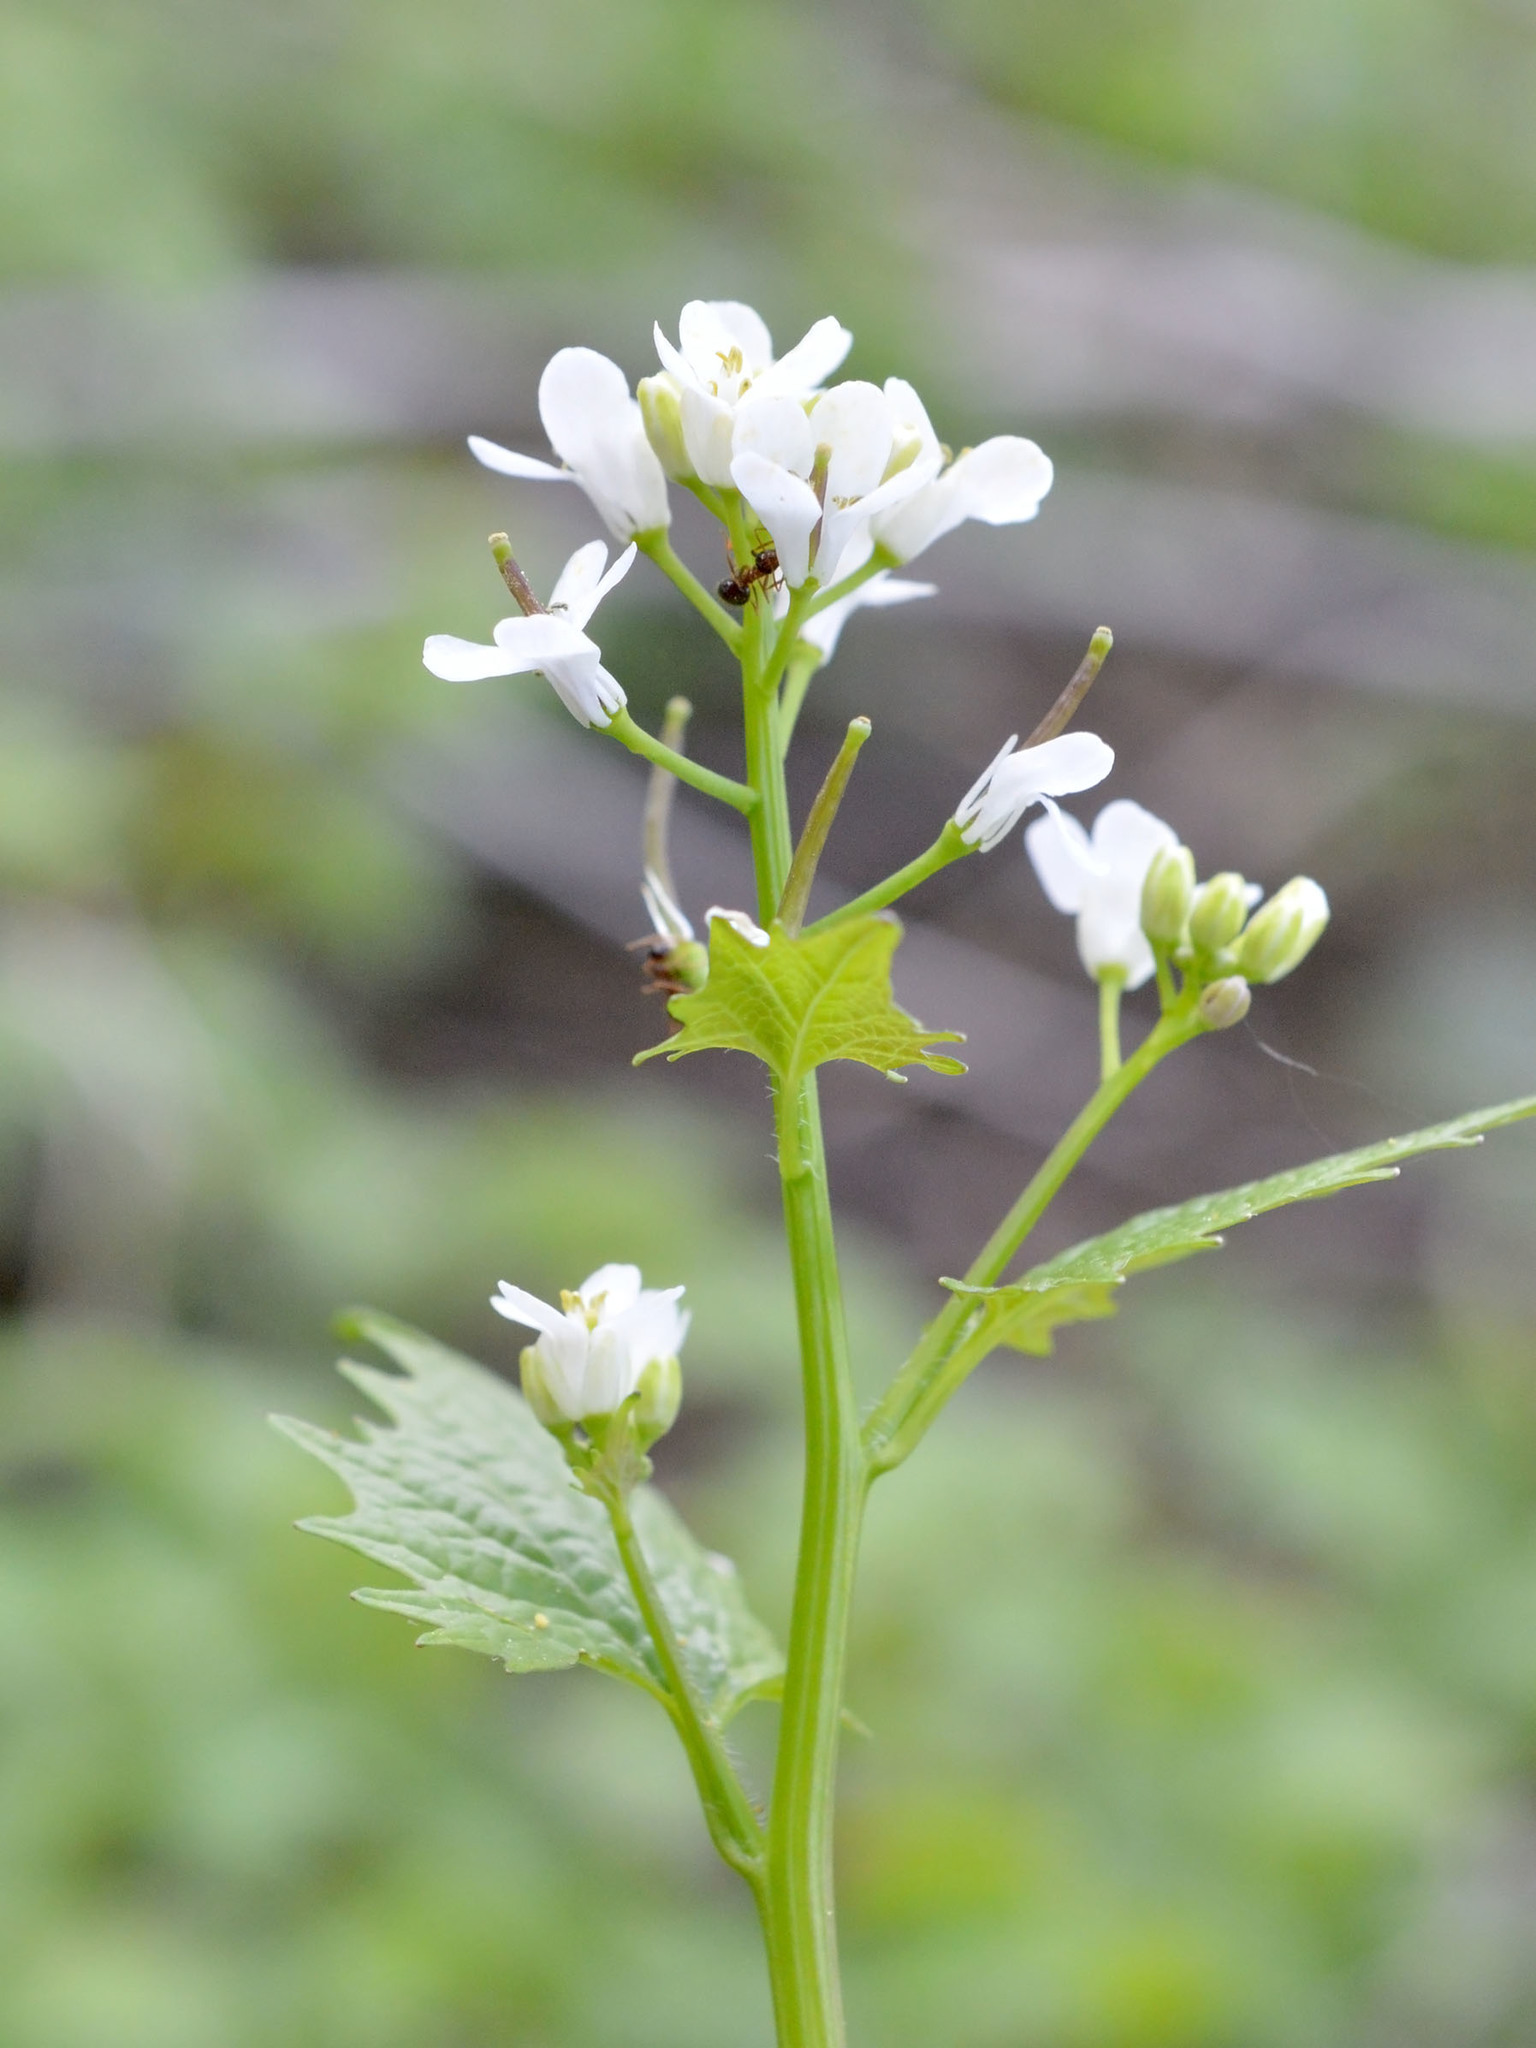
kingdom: Plantae
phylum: Tracheophyta
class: Magnoliopsida
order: Brassicales
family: Brassicaceae
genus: Alliaria
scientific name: Alliaria petiolata
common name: Garlic mustard
